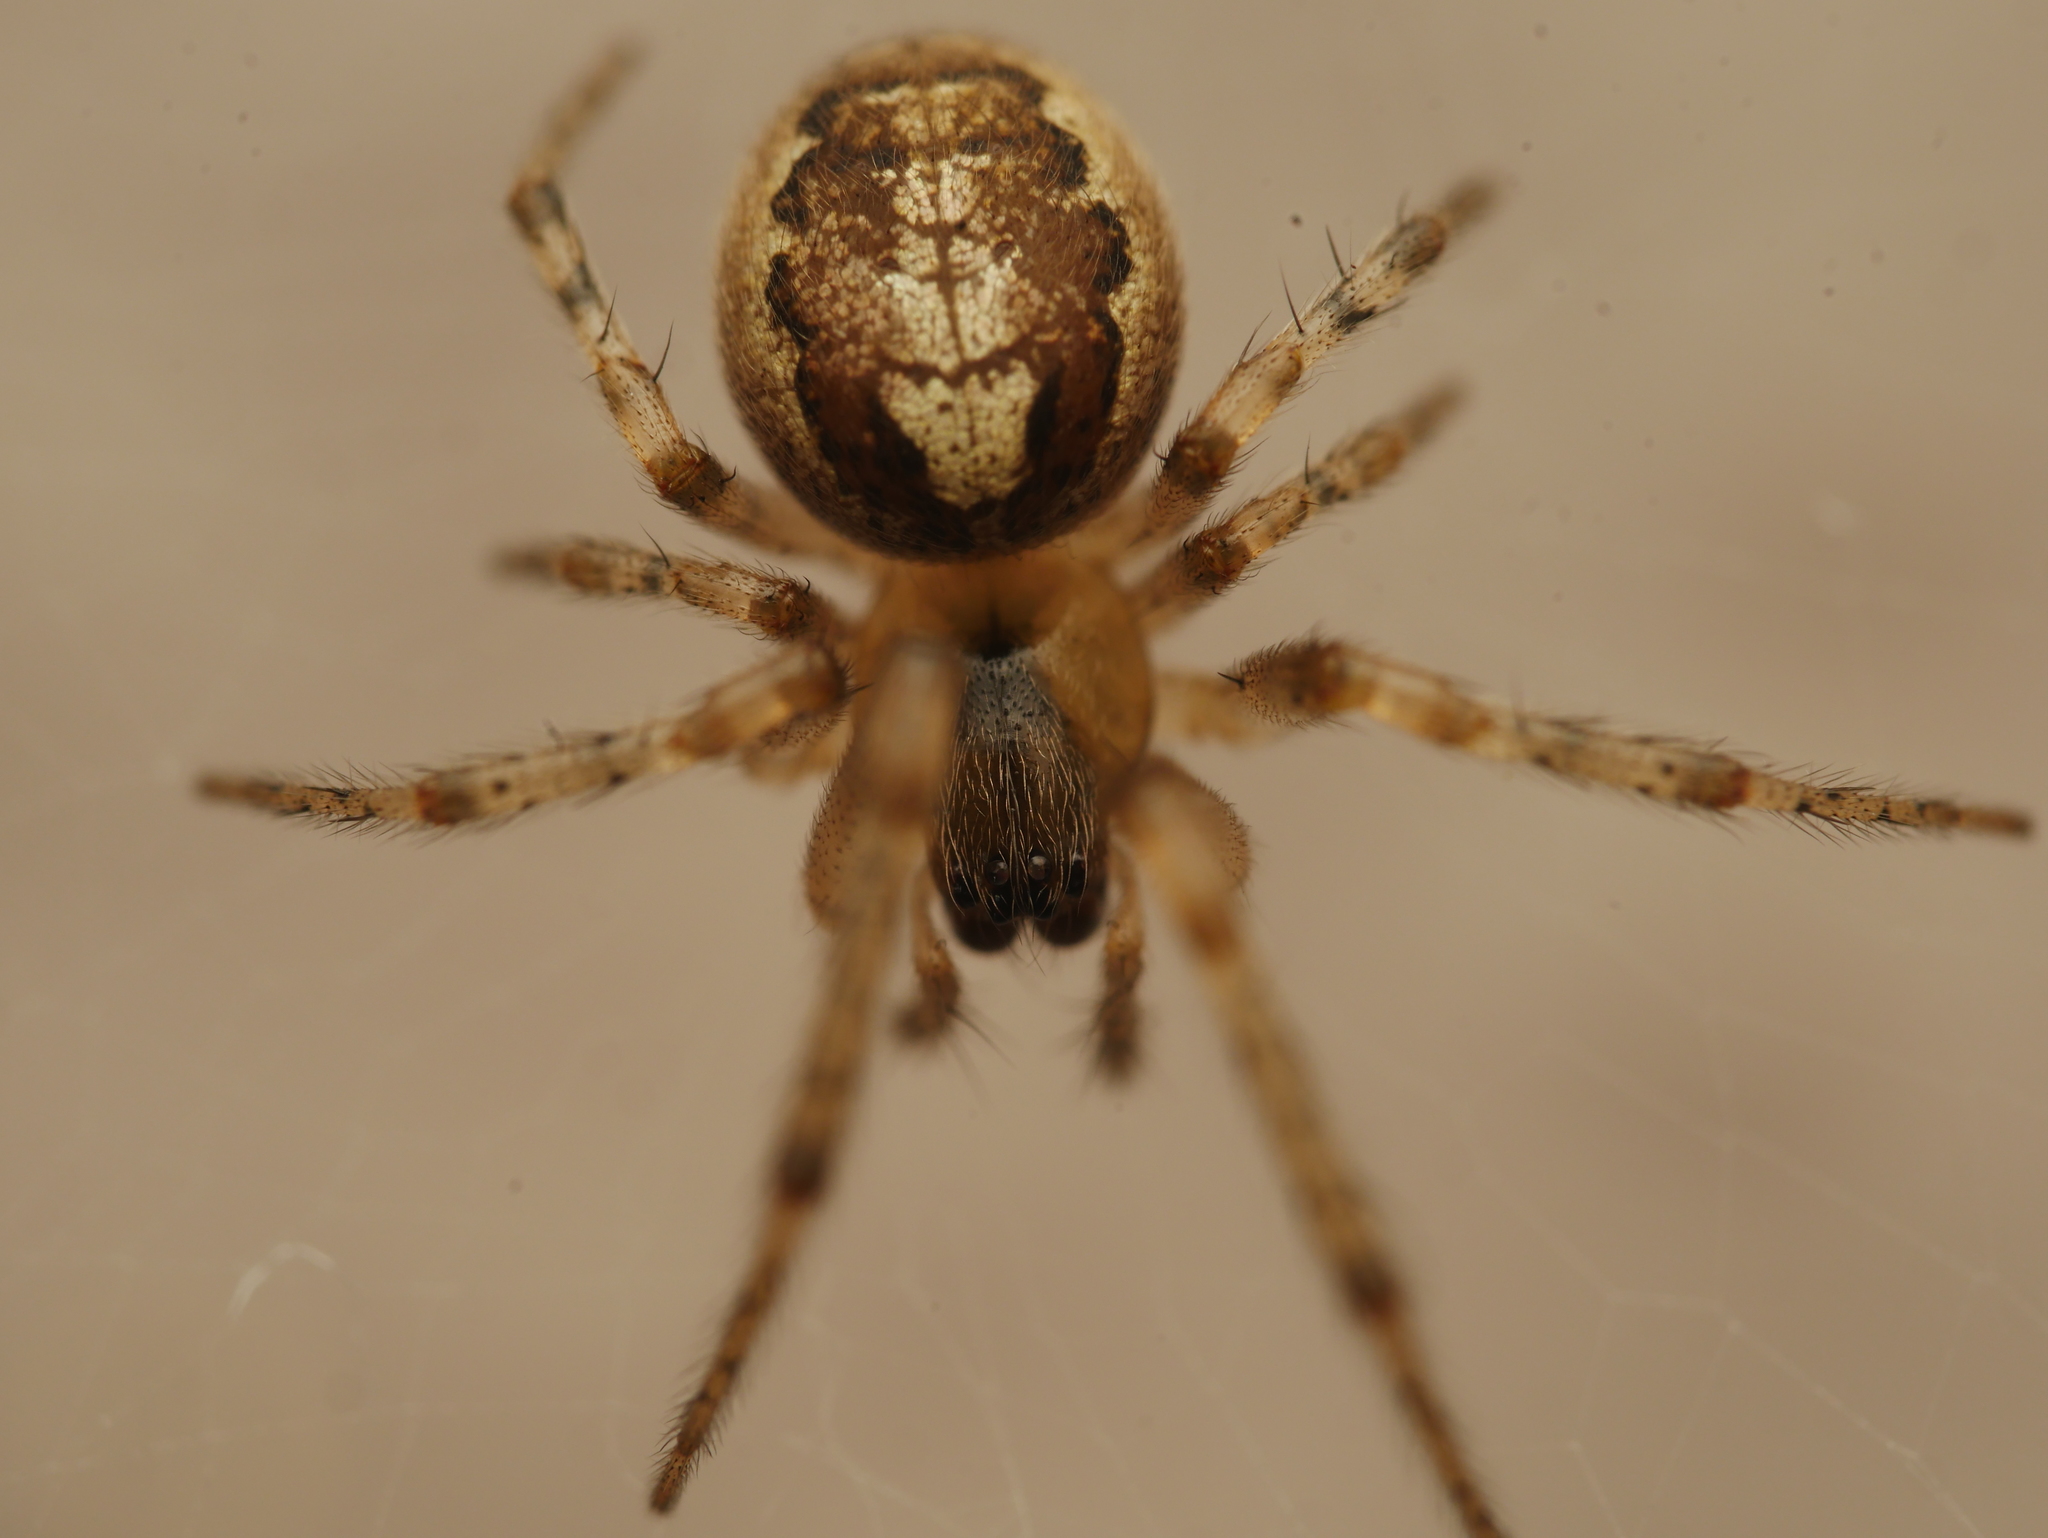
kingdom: Animalia
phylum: Arthropoda
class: Arachnida
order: Araneae
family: Araneidae
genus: Zygiella
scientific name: Zygiella x-notata
